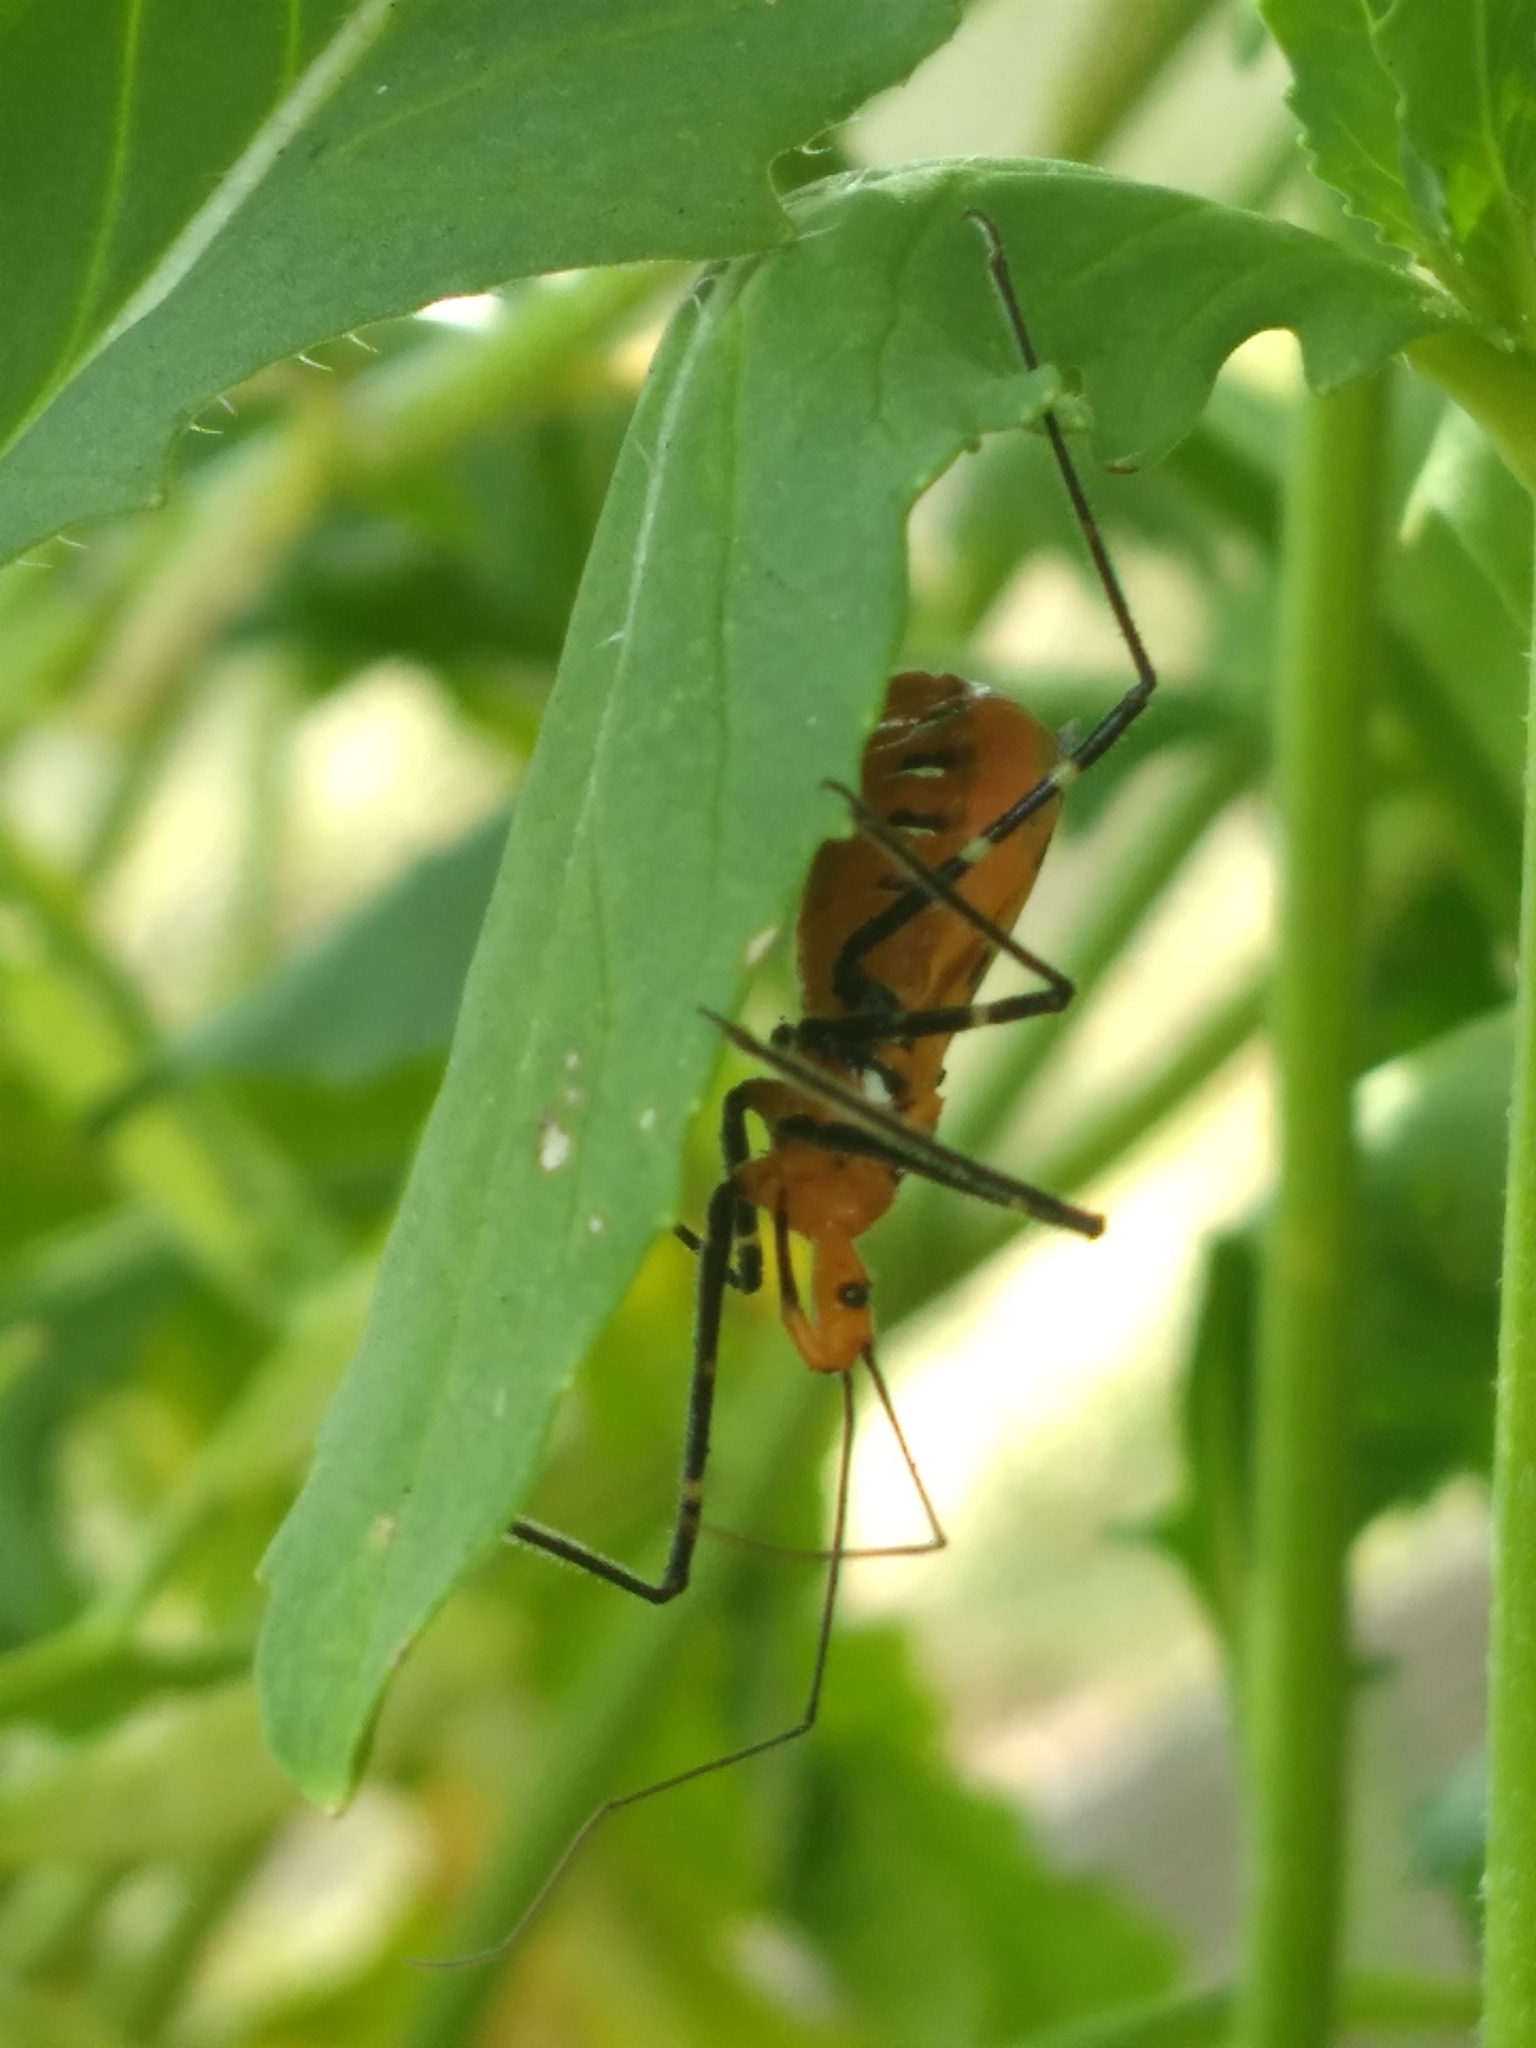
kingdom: Animalia
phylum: Arthropoda
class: Insecta
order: Hemiptera
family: Reduviidae
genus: Zelus
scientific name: Zelus longipes
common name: Milkweed assassin bug
